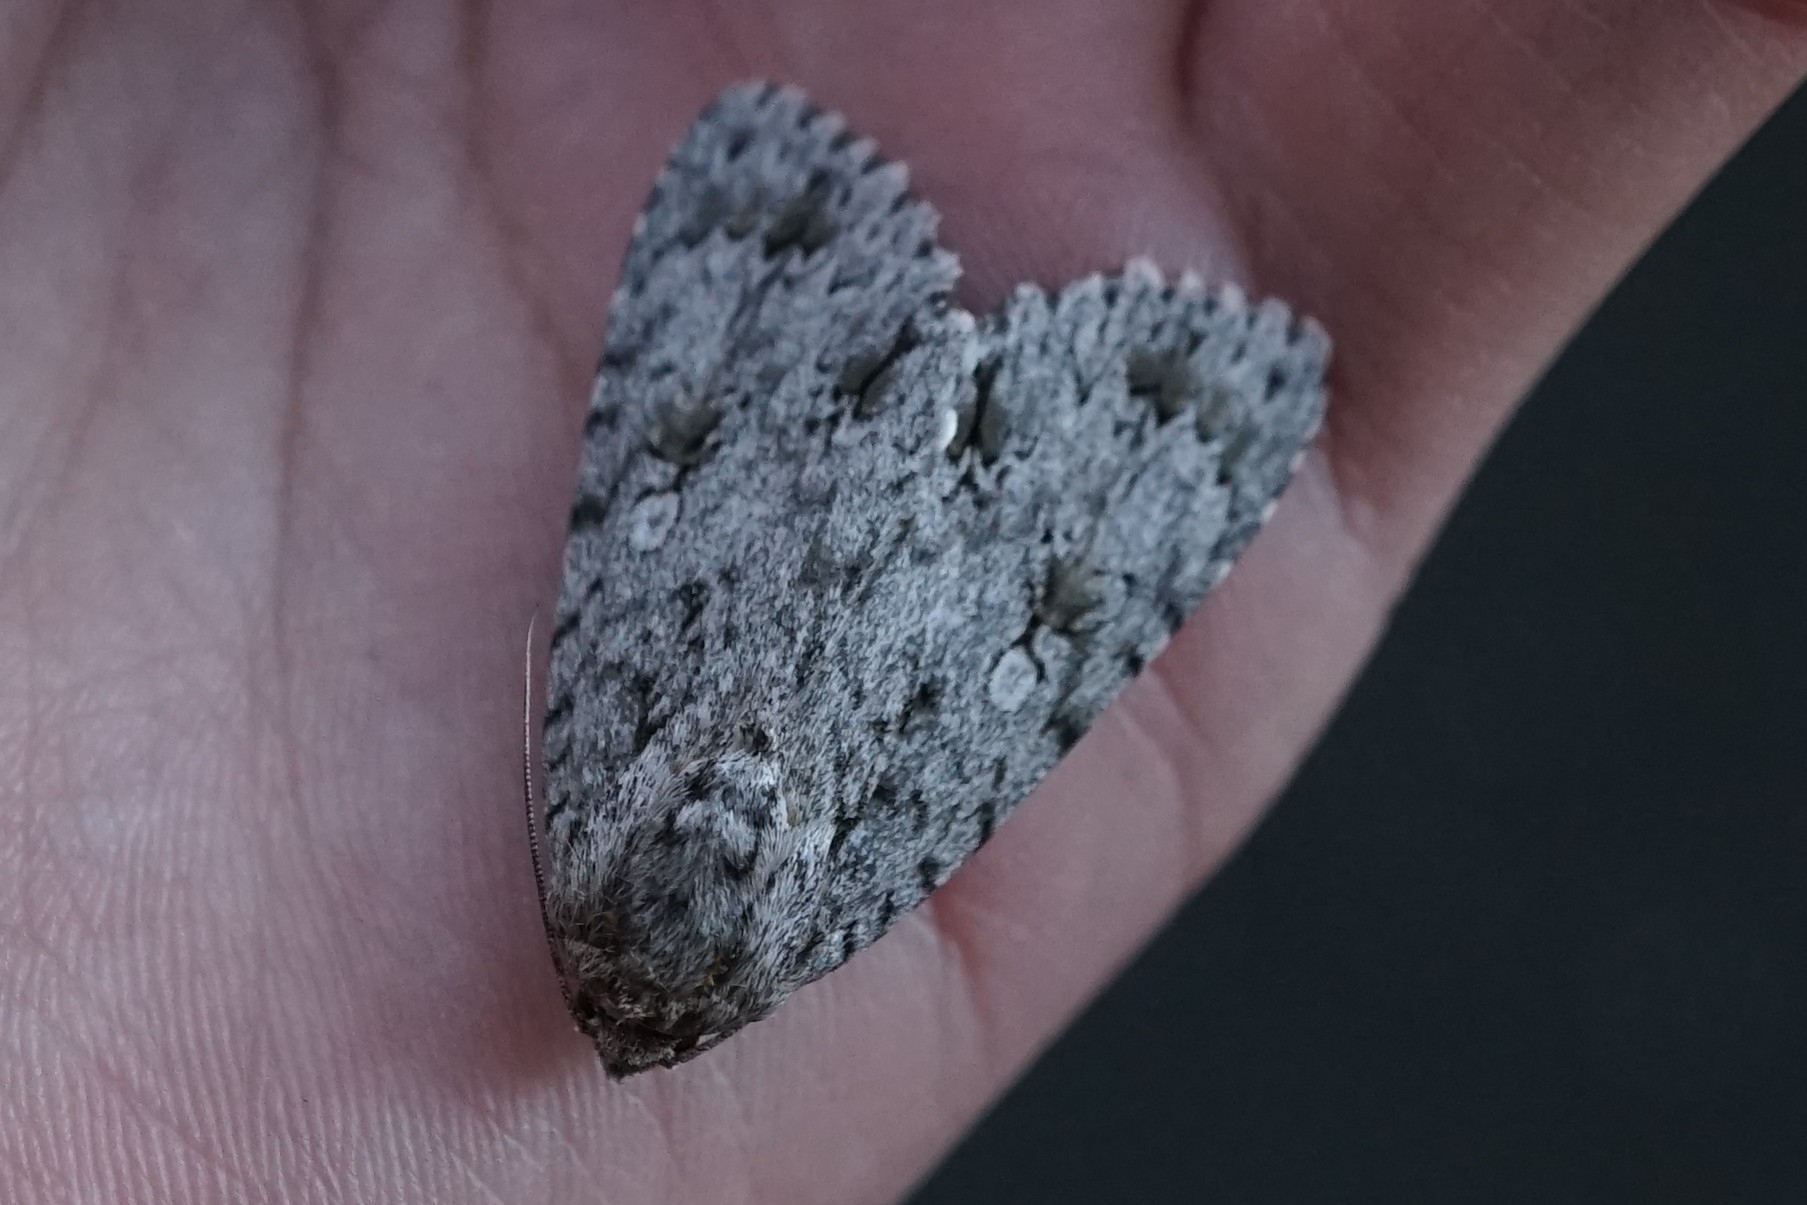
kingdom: Animalia
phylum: Arthropoda
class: Insecta
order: Lepidoptera
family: Noctuidae
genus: Acronicta
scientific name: Acronicta hercules
